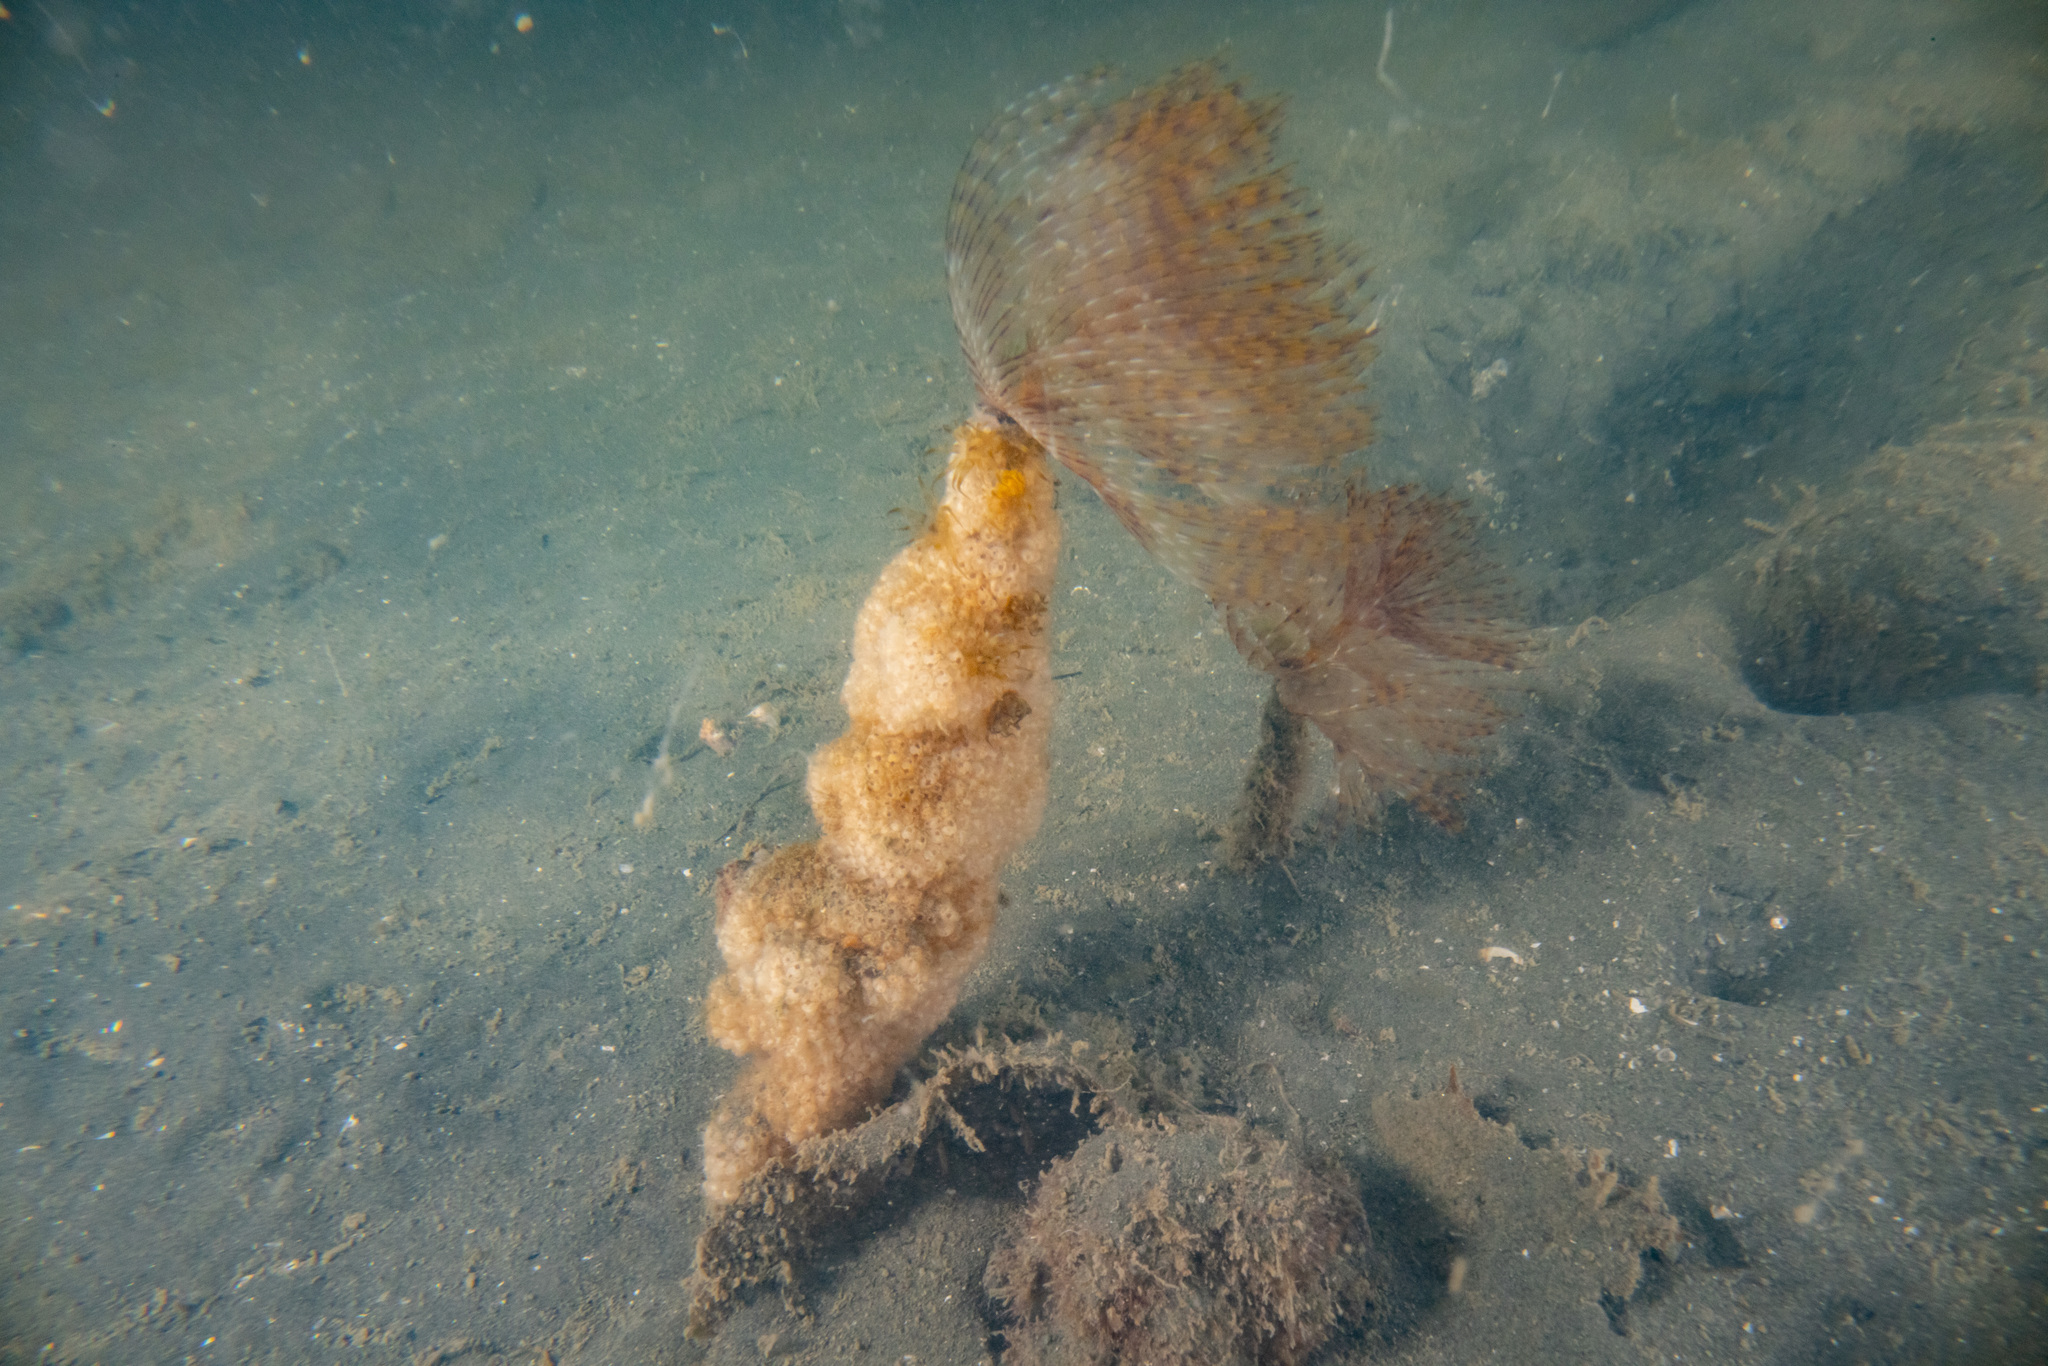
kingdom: Animalia
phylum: Annelida
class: Polychaeta
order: Sabellida
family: Sabellidae
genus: Sabella
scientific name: Sabella spallanzanii
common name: Feather duster worm
